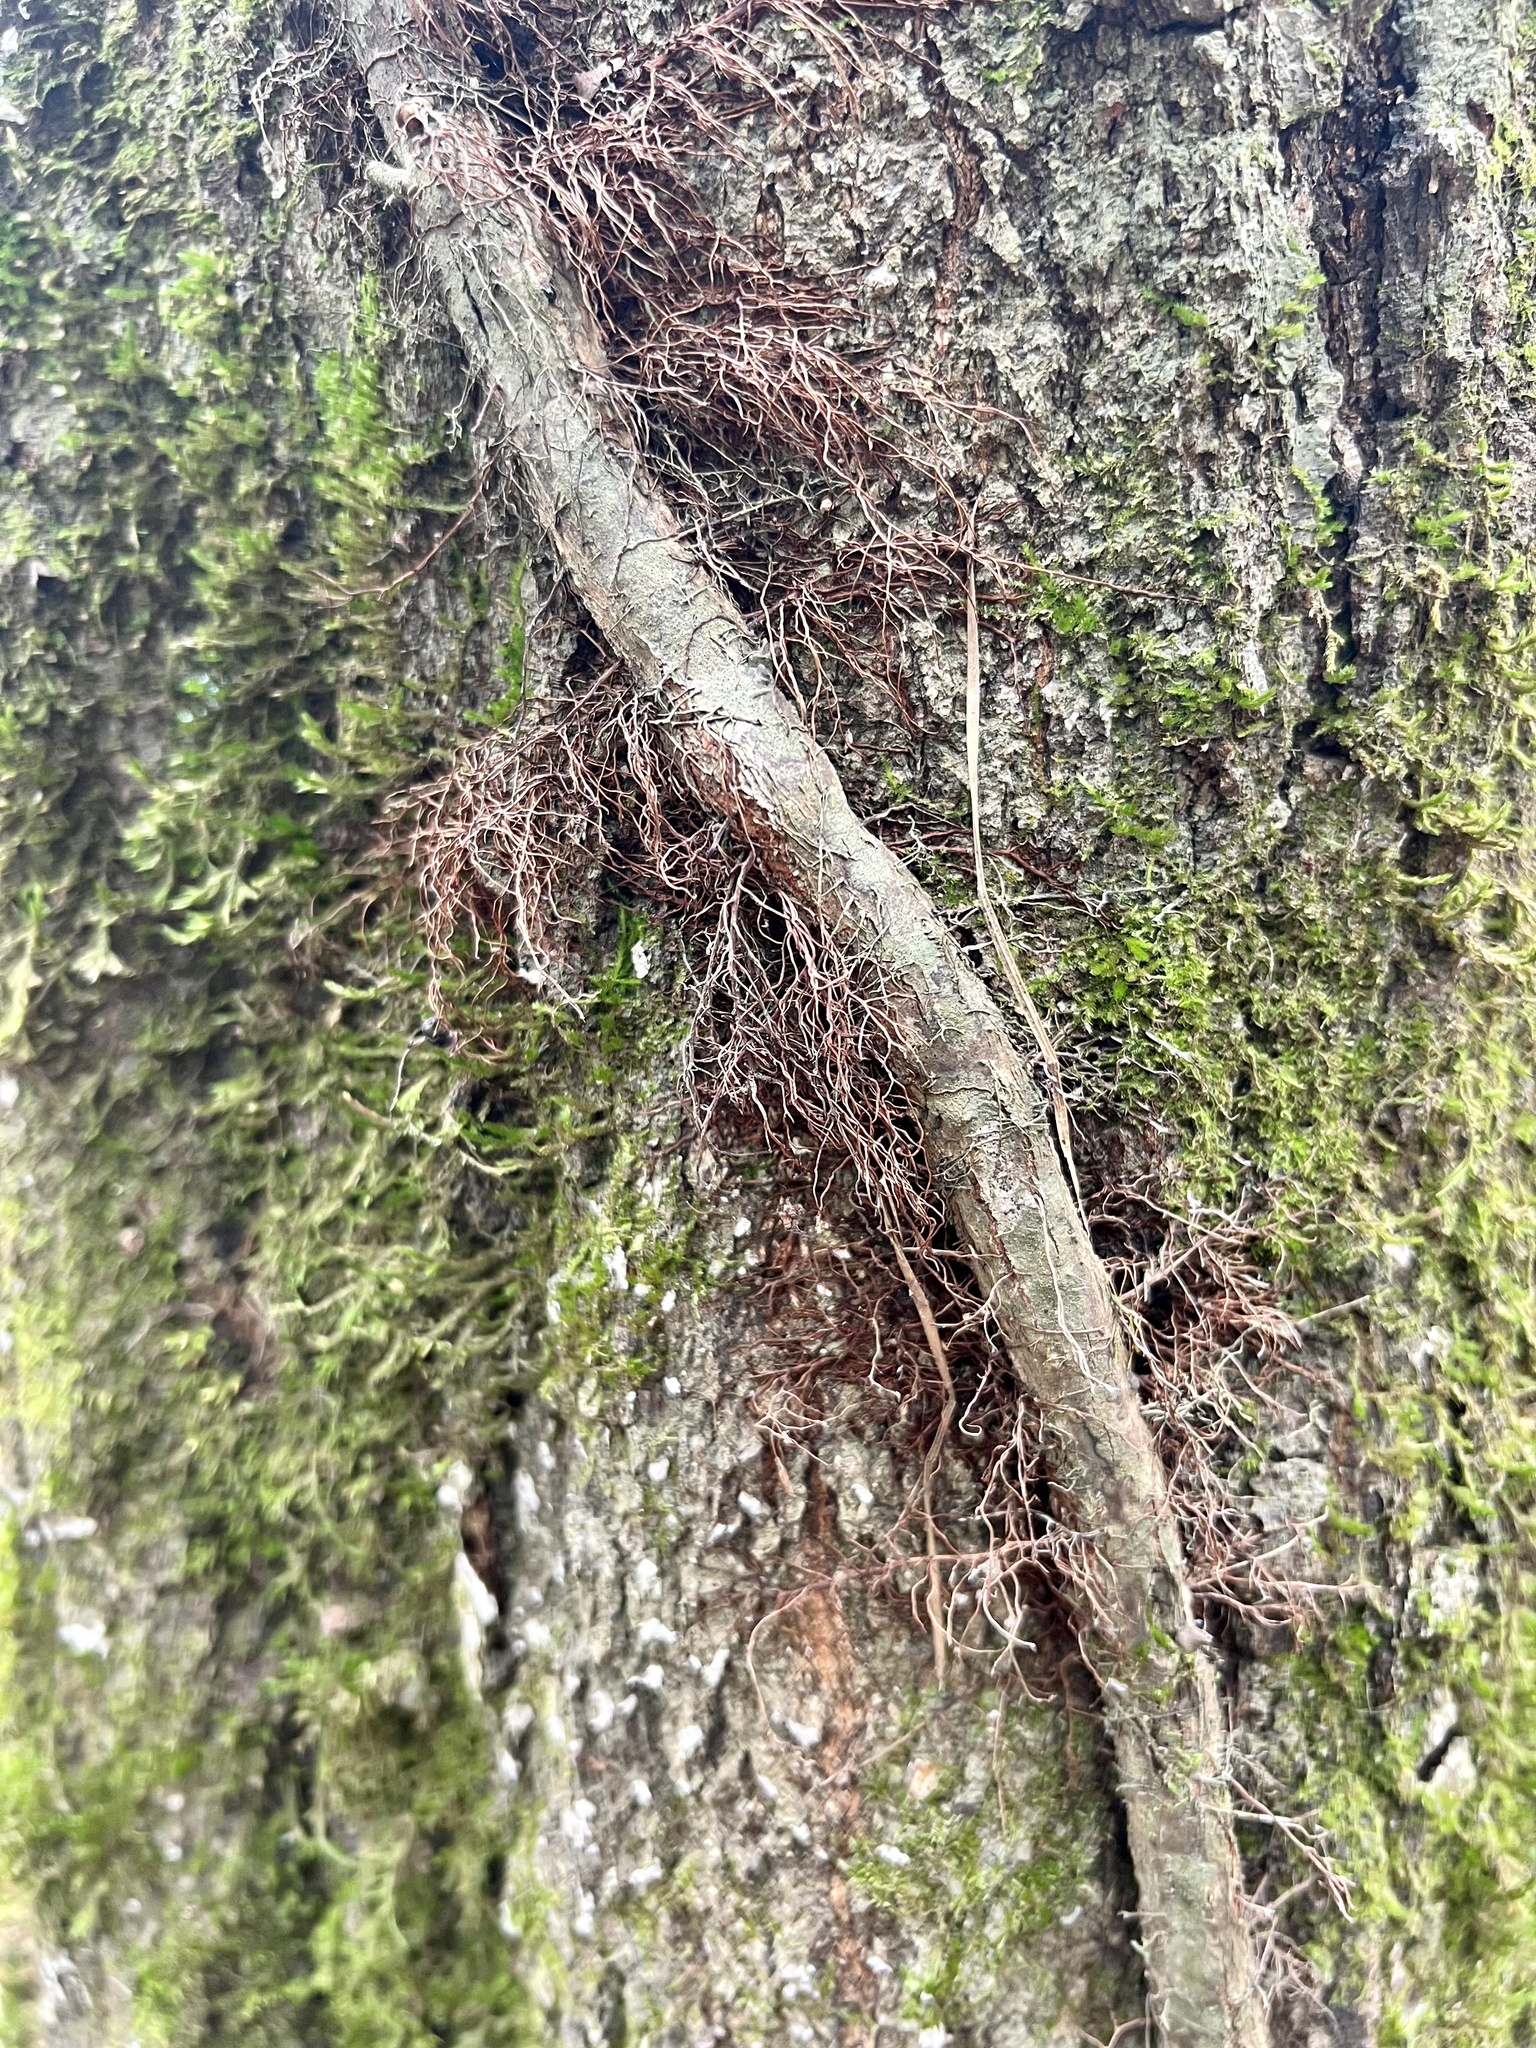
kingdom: Plantae
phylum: Tracheophyta
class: Magnoliopsida
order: Sapindales
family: Anacardiaceae
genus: Toxicodendron
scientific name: Toxicodendron radicans
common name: Poison ivy
